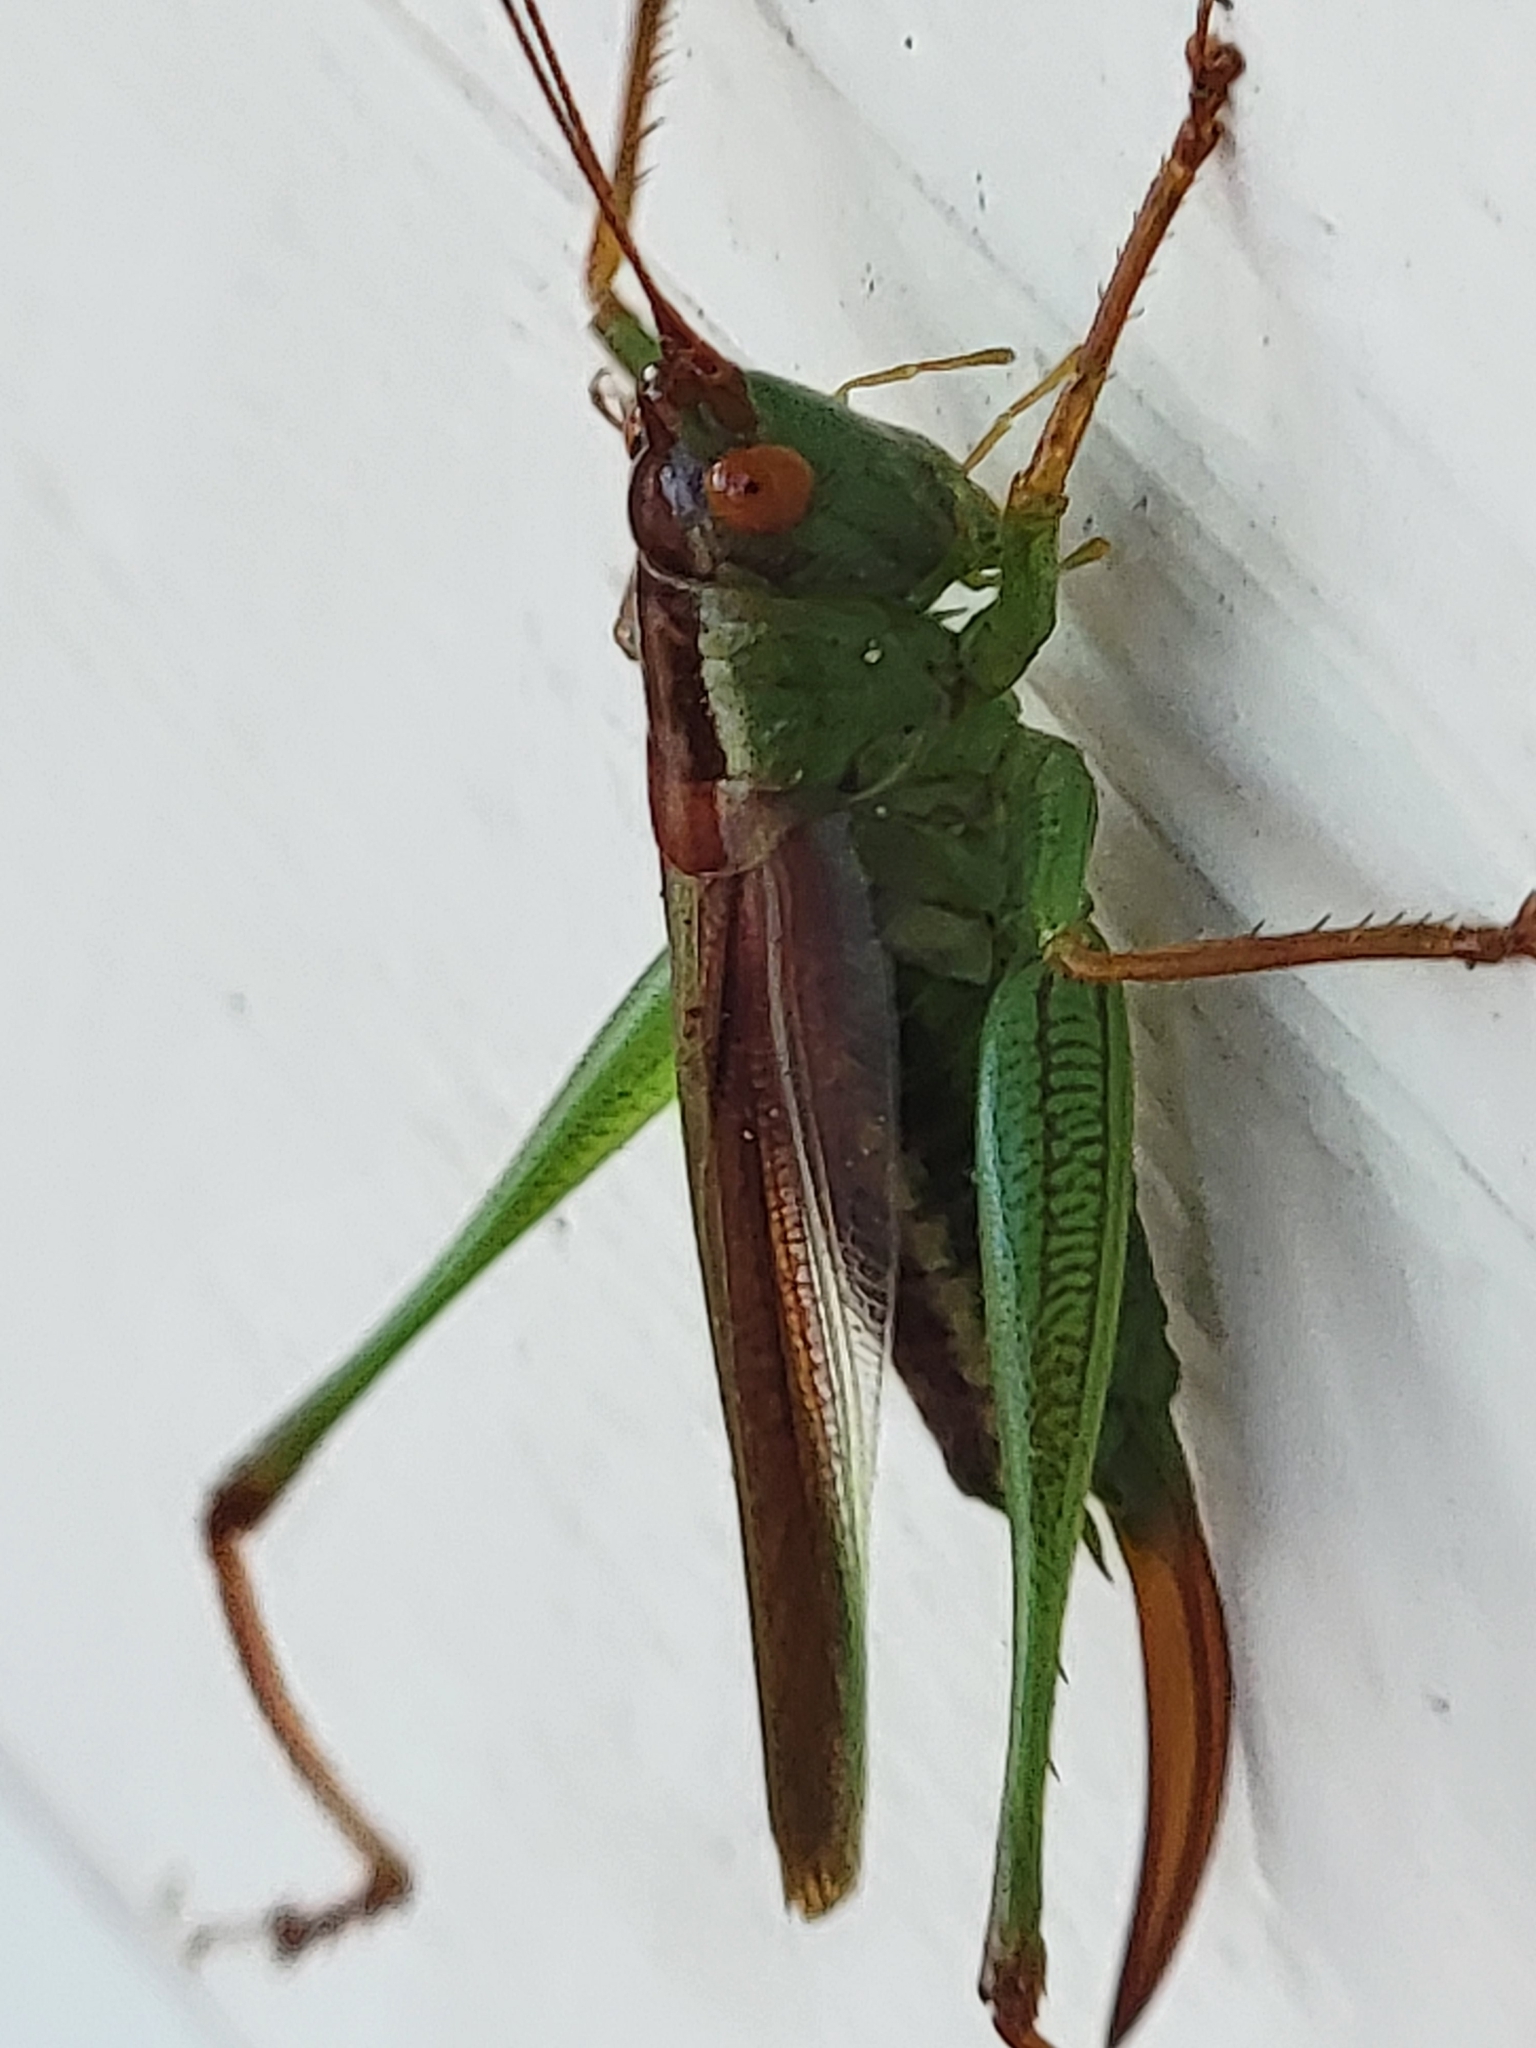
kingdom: Animalia
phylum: Arthropoda
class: Insecta
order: Orthoptera
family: Tettigoniidae
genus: Orchelimum
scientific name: Orchelimum minor
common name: Lesser pine meadow katydid
